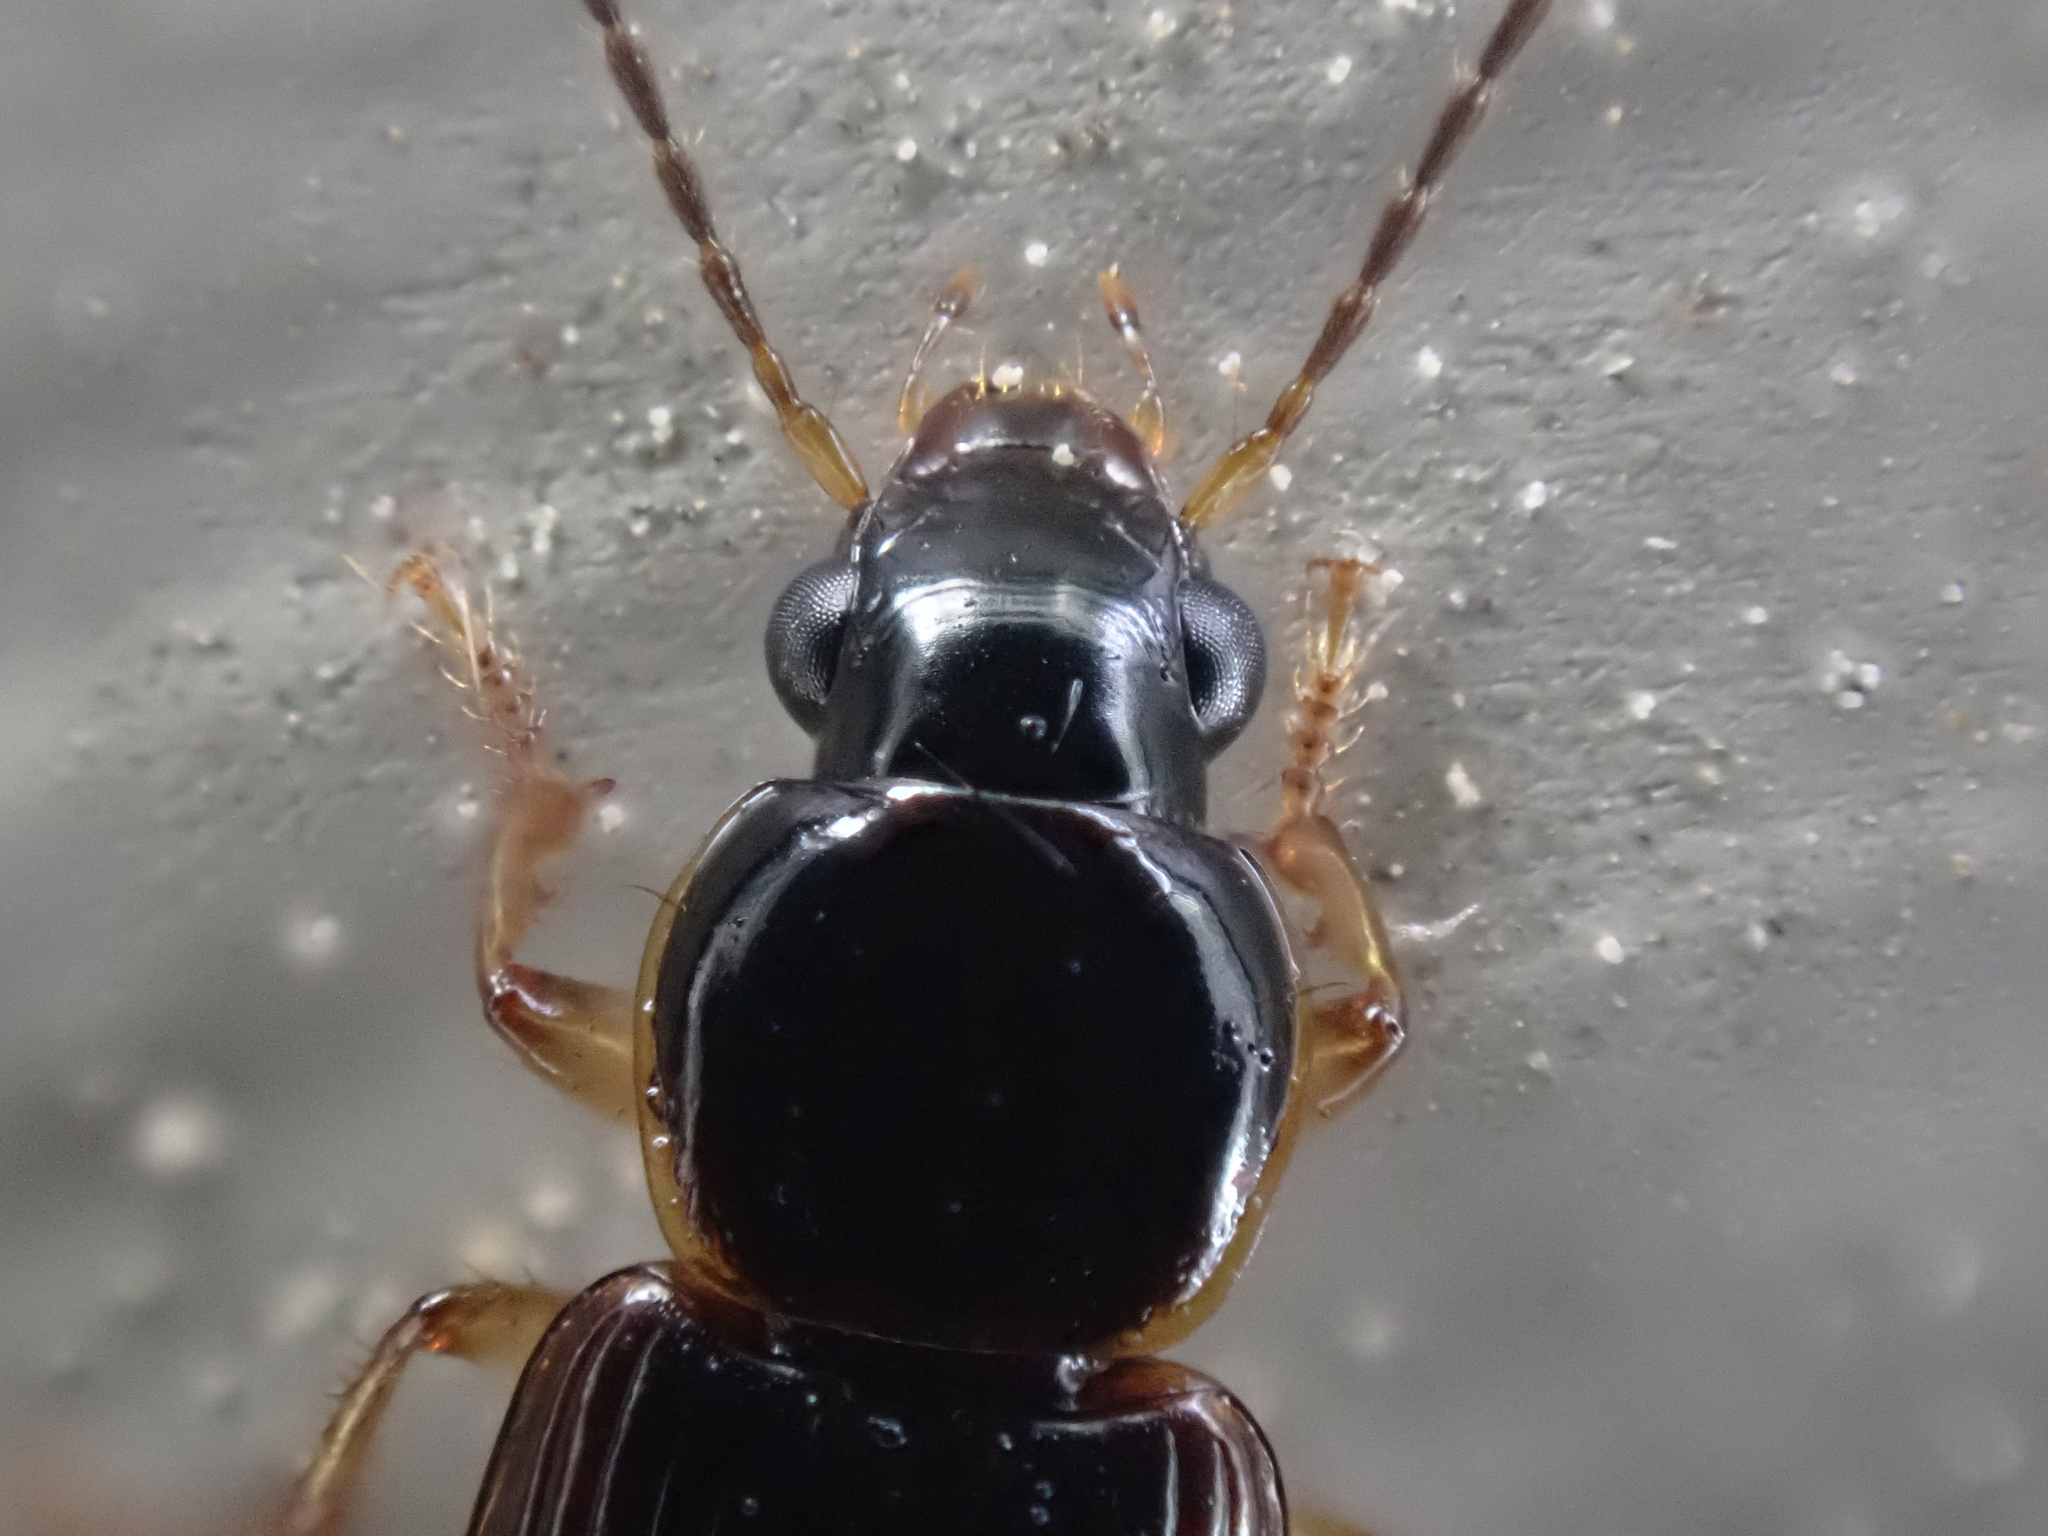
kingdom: Animalia
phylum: Arthropoda
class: Insecta
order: Coleoptera
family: Carabidae
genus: Stenolophus
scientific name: Stenolophus ochropezus
